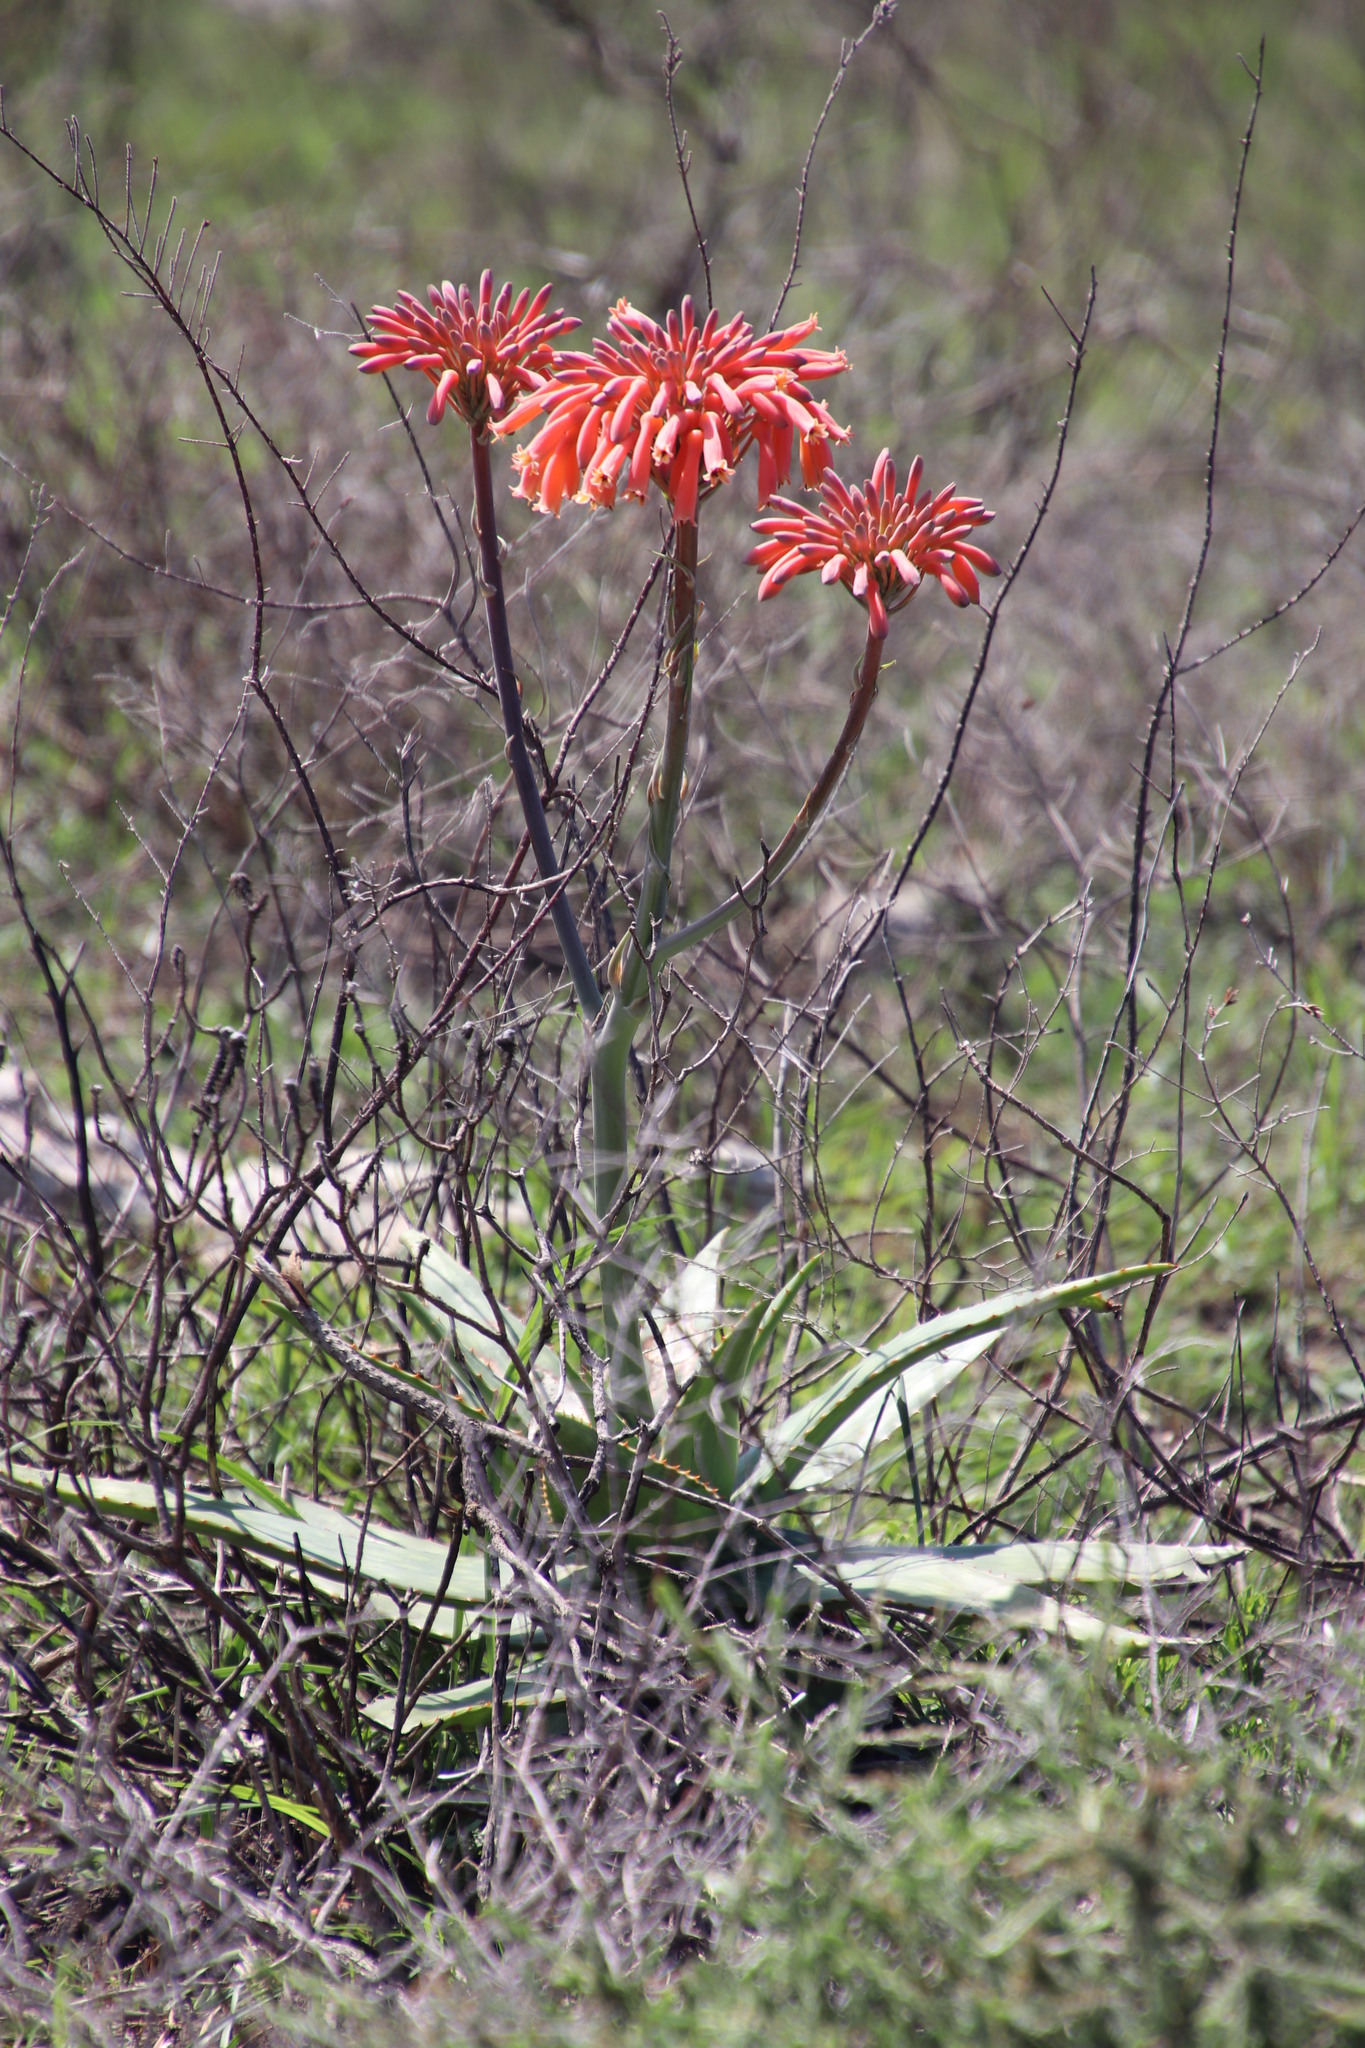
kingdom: Plantae
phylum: Tracheophyta
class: Liliopsida
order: Asparagales
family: Asphodelaceae
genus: Aloe
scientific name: Aloe maculata
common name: Broadleaf aloe
